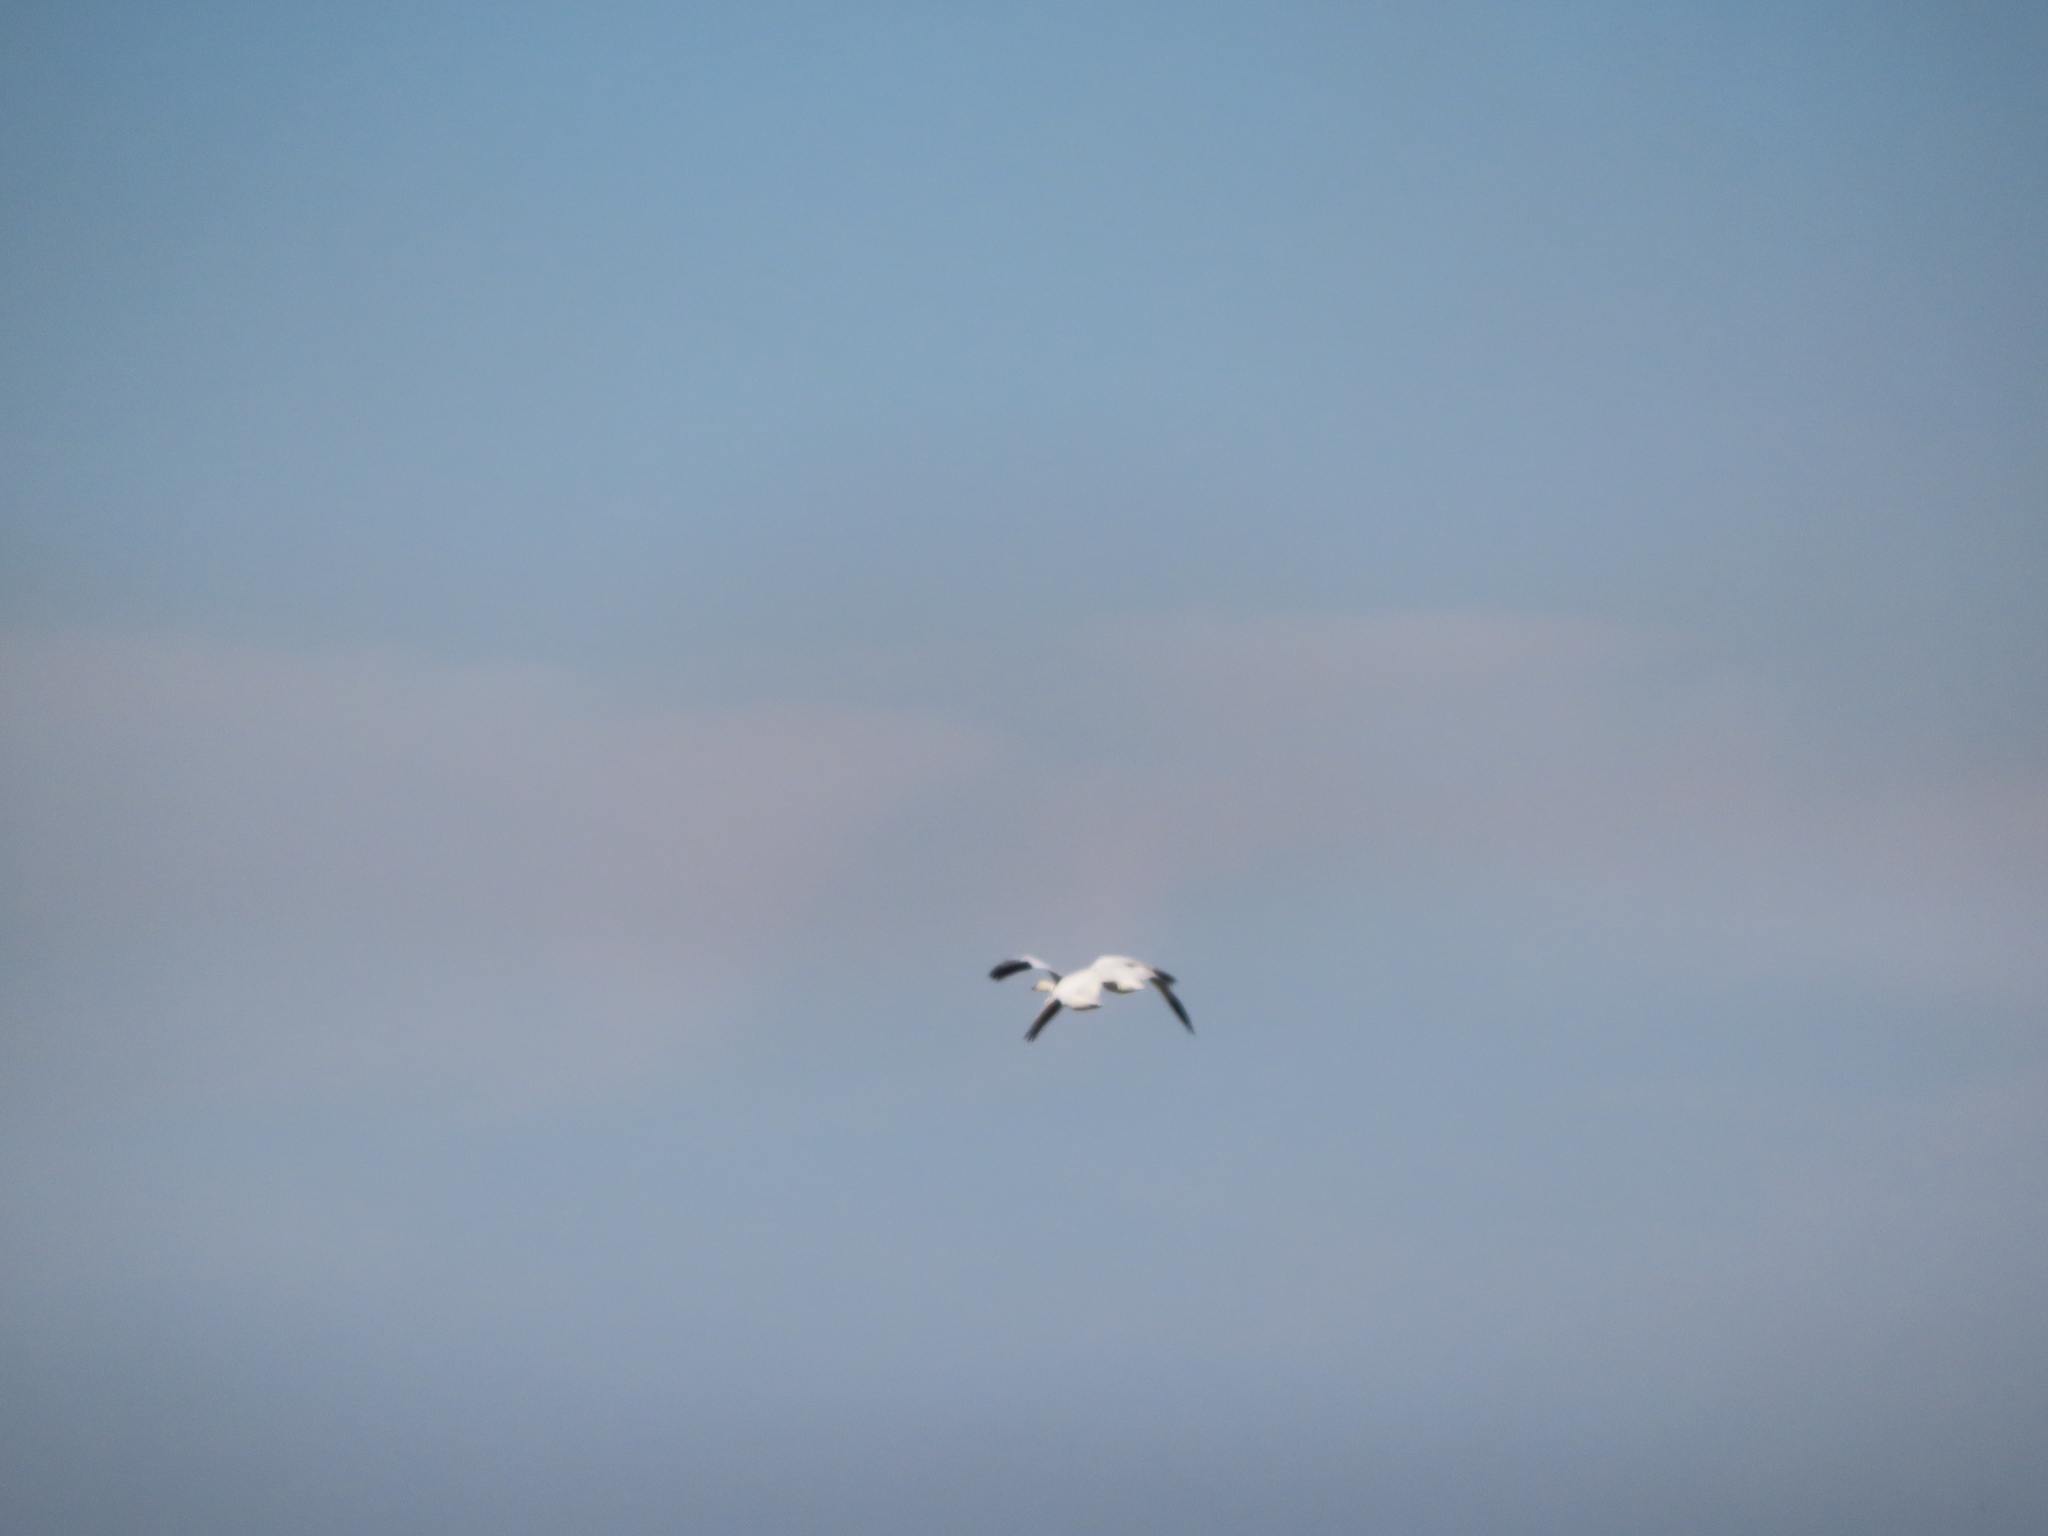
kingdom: Animalia
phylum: Chordata
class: Aves
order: Anseriformes
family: Anatidae
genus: Anser
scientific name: Anser caerulescens
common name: Snow goose
